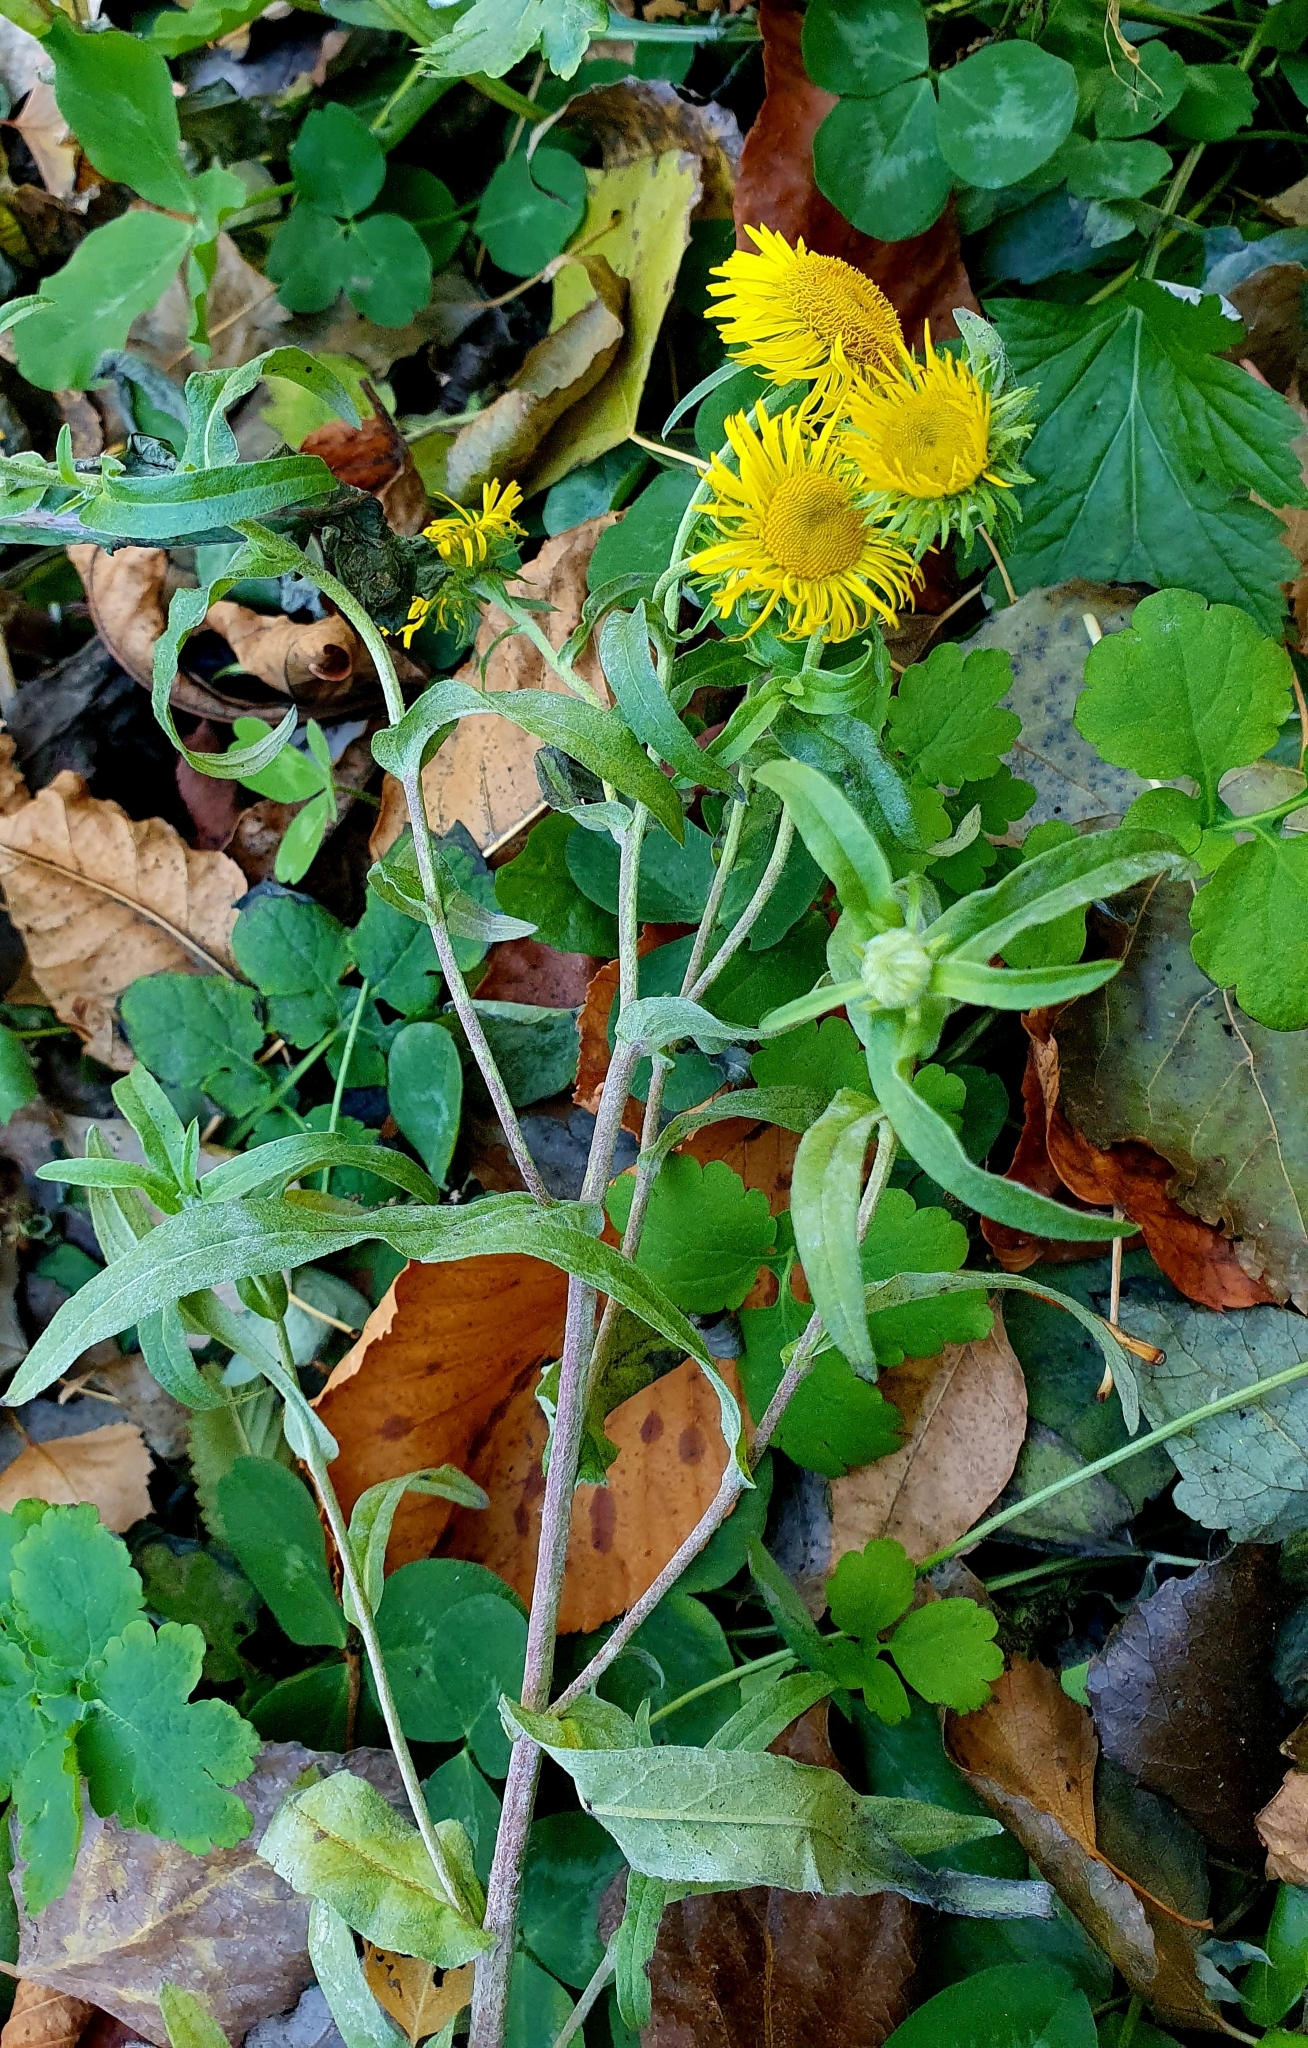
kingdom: Plantae
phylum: Tracheophyta
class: Magnoliopsida
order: Asterales
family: Asteraceae
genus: Pentanema
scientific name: Pentanema britannicum
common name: British elecampane
